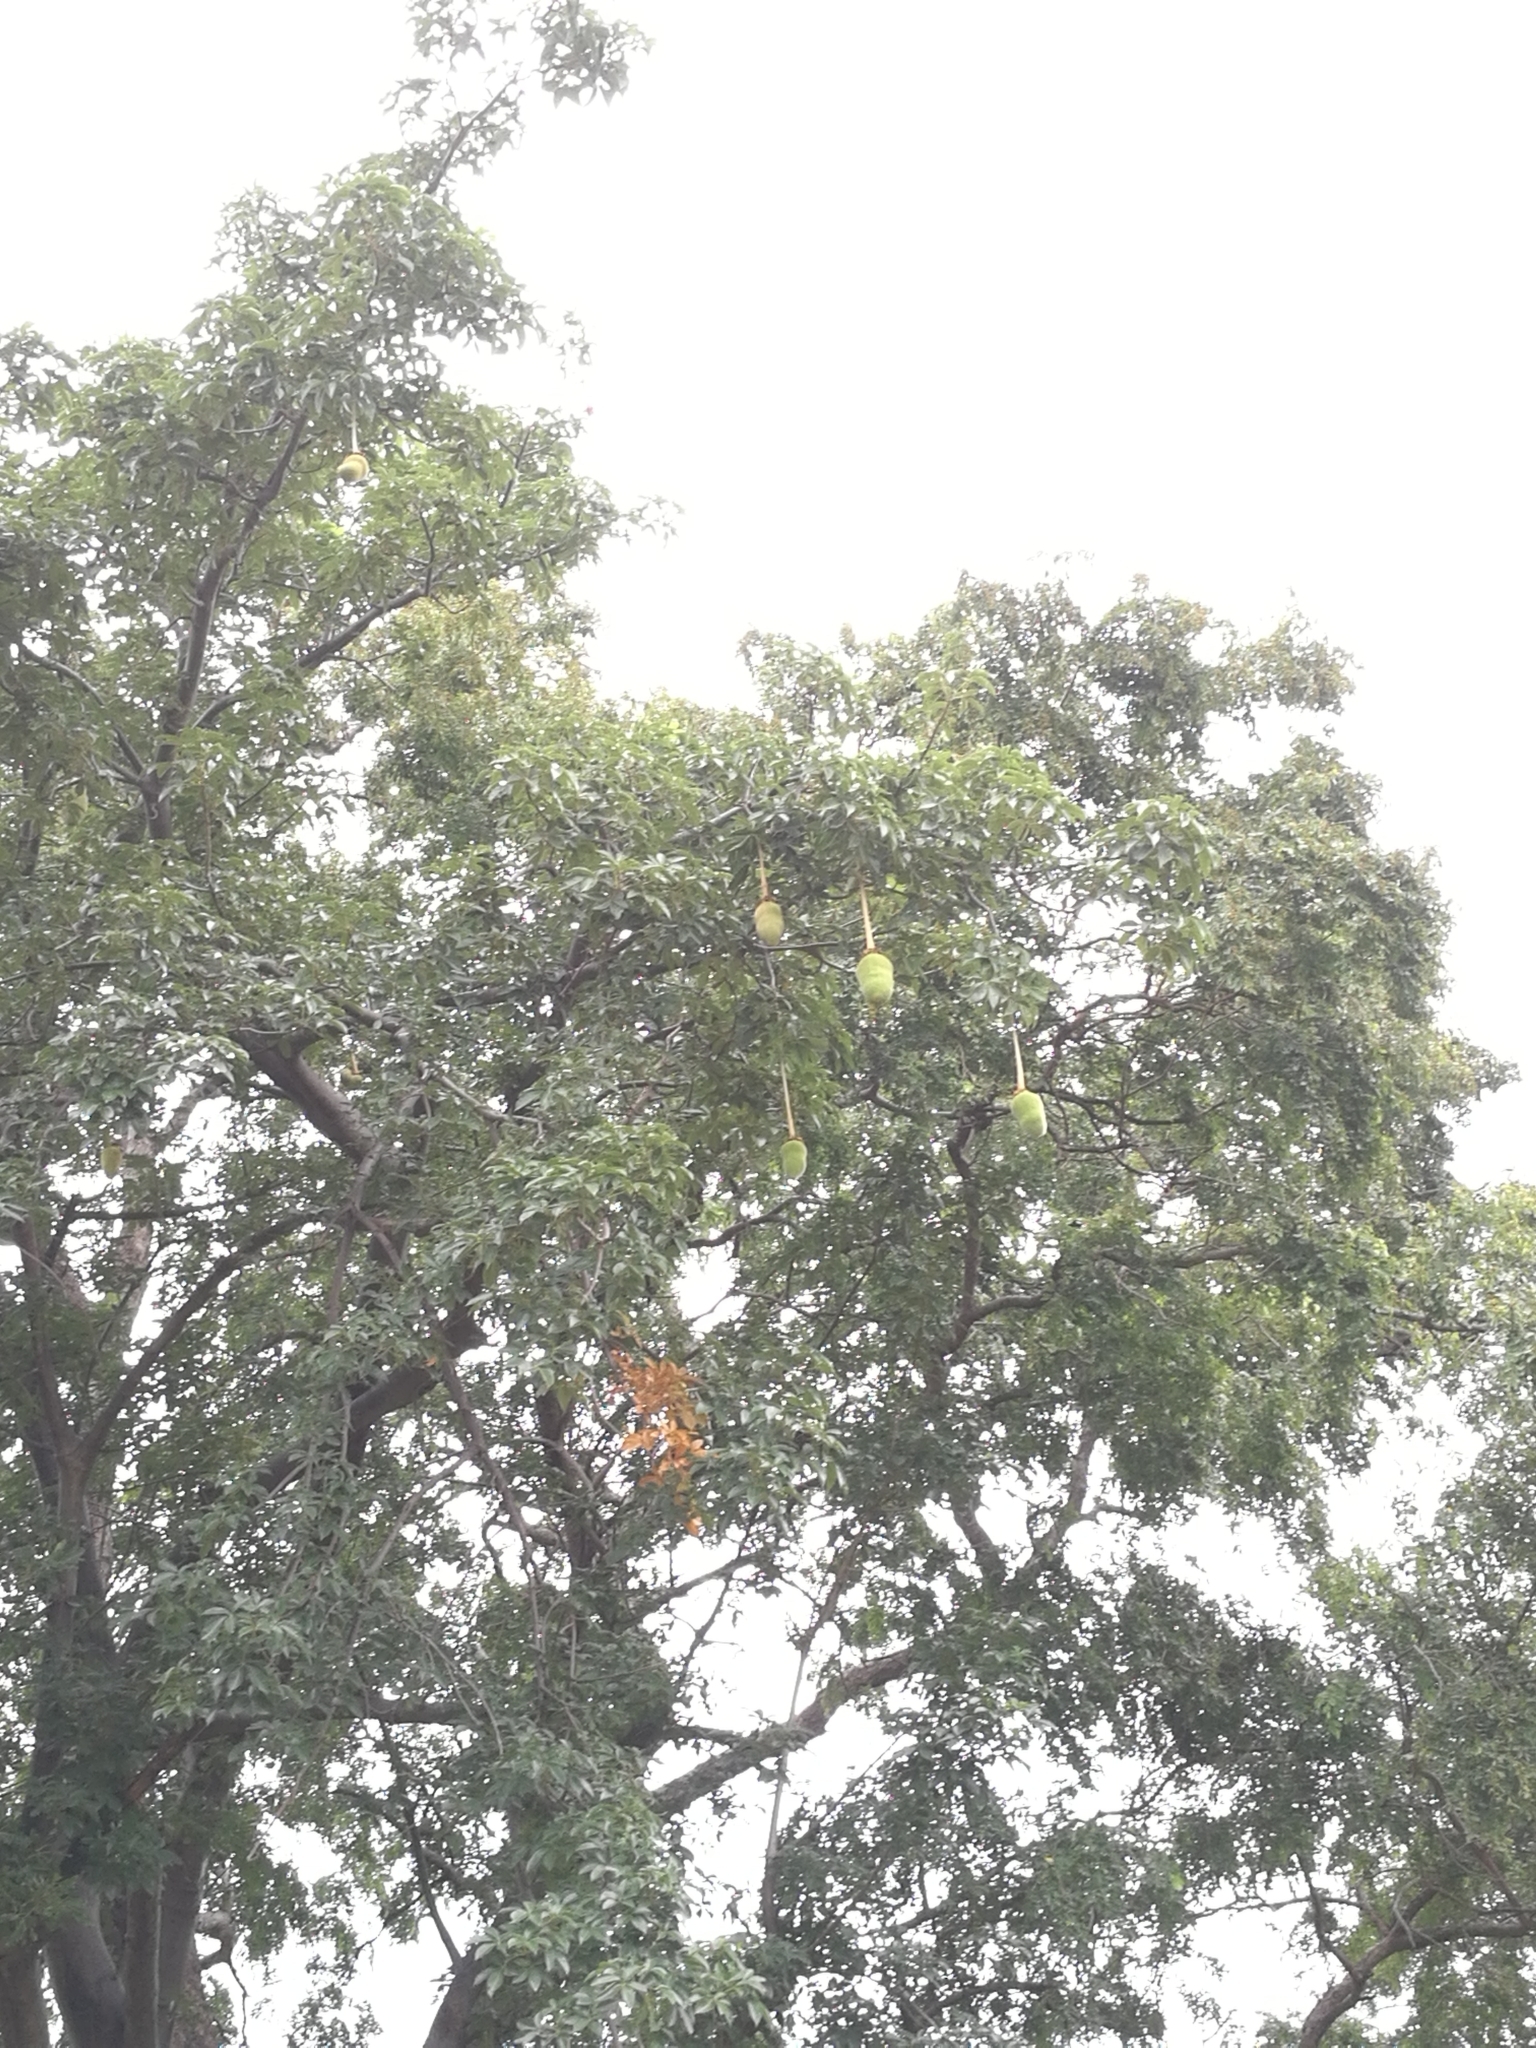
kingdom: Plantae
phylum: Tracheophyta
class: Magnoliopsida
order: Malvales
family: Malvaceae
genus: Adansonia
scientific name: Adansonia digitata
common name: Dead-rat-tree
